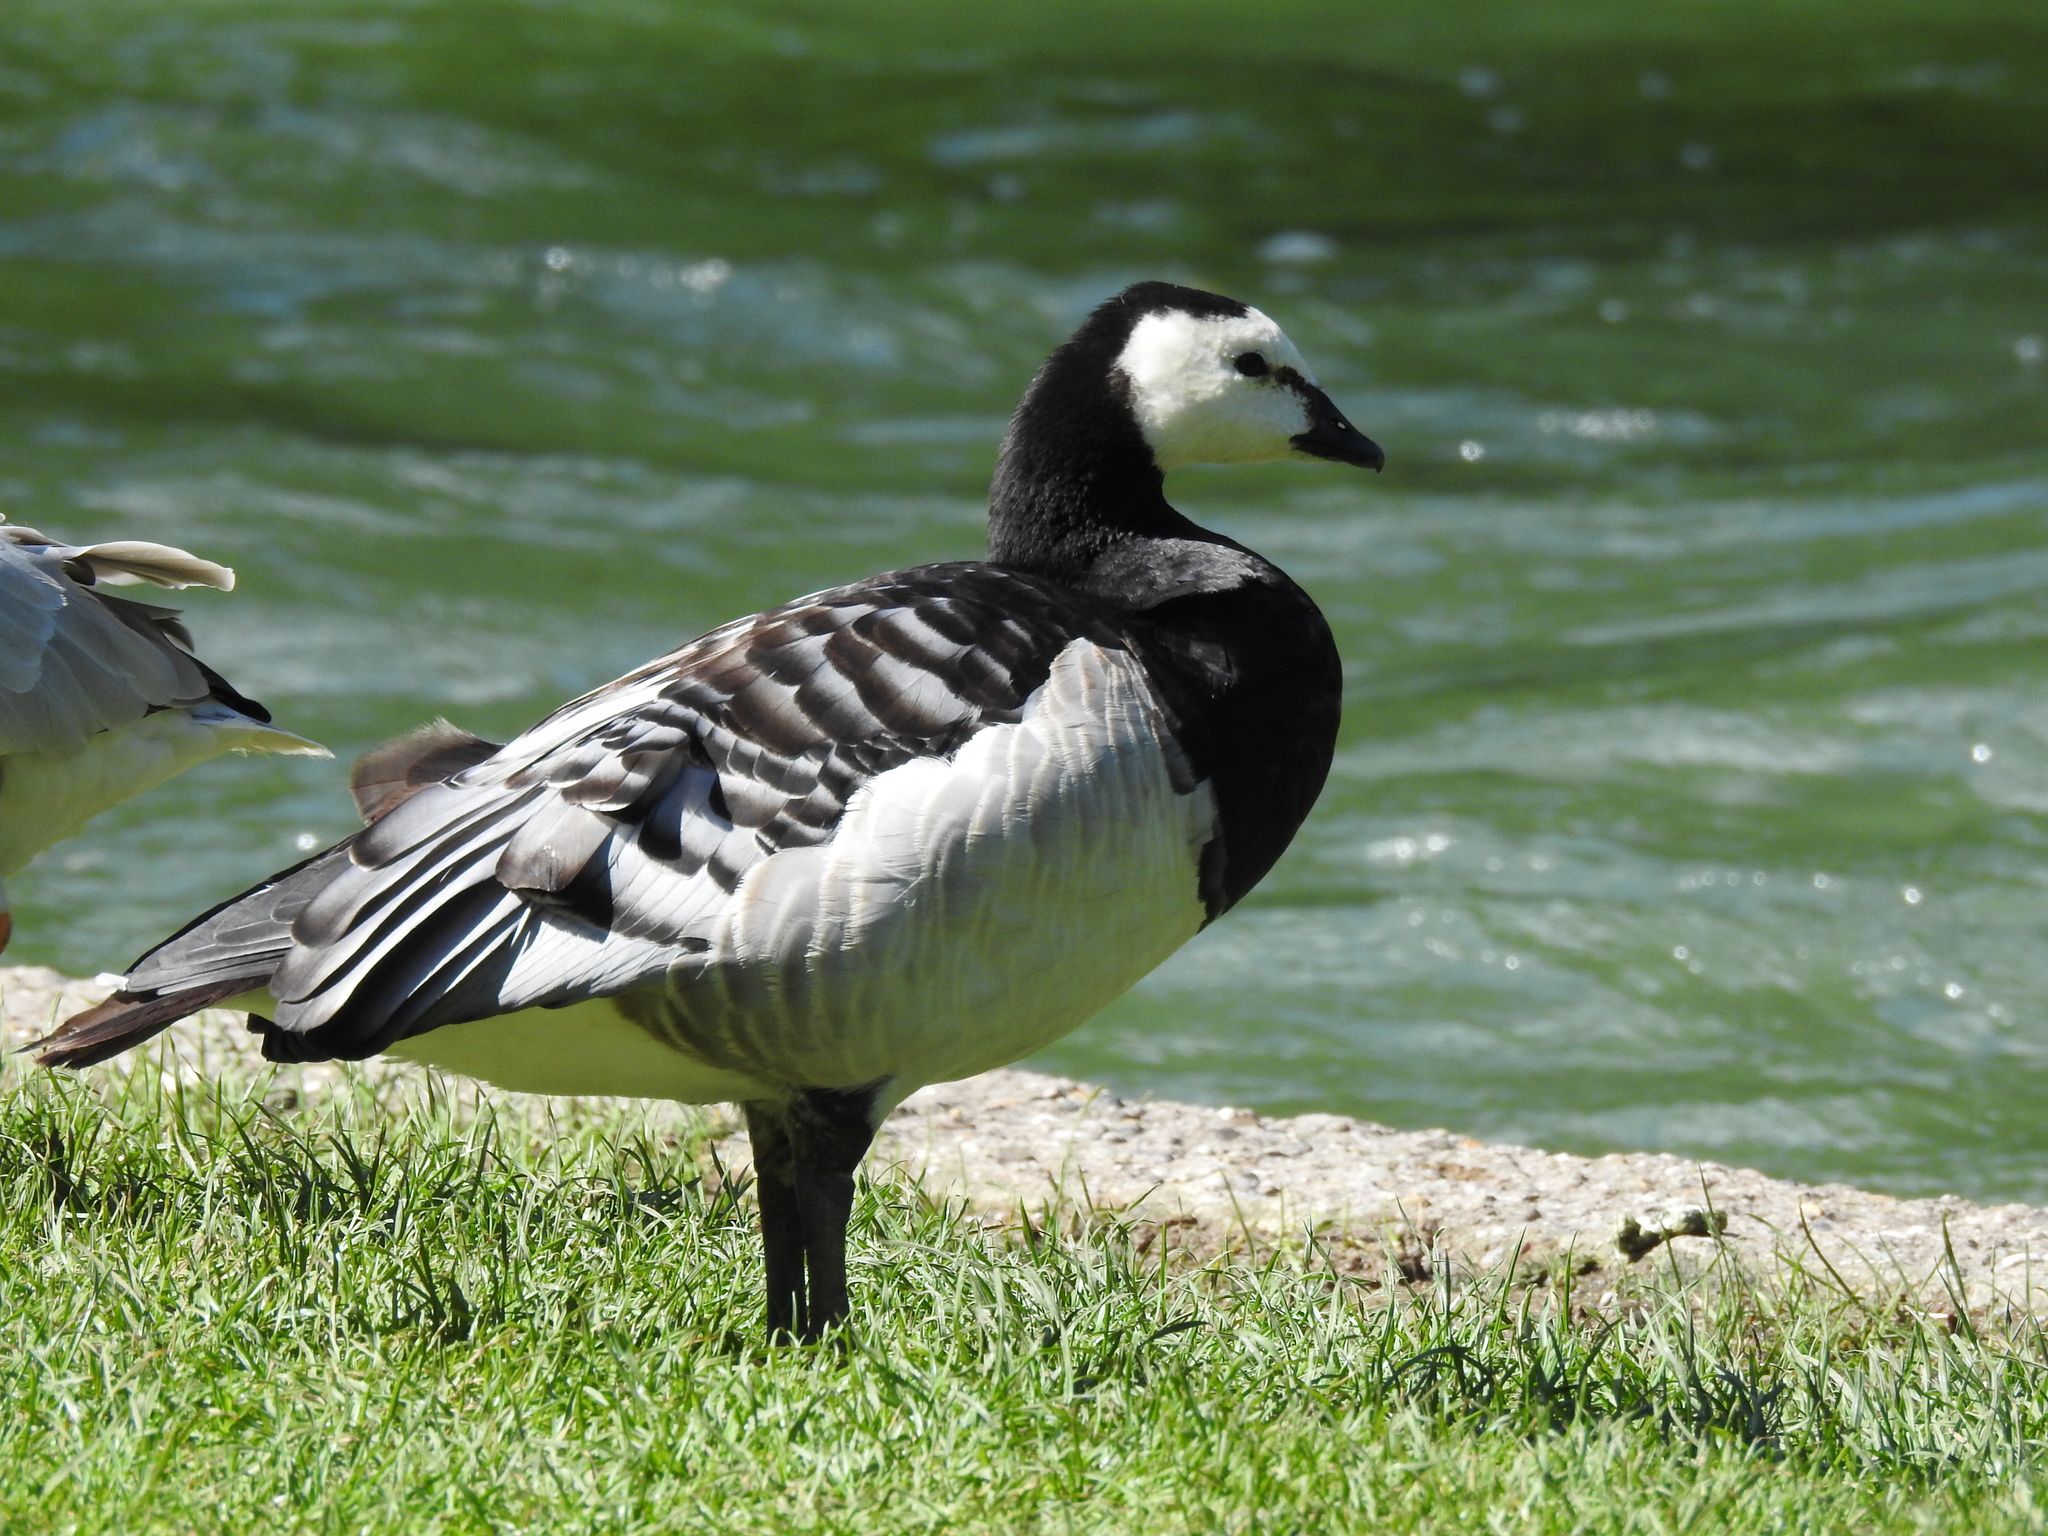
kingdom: Animalia
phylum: Chordata
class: Aves
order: Anseriformes
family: Anatidae
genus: Branta
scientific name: Branta leucopsis
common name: Barnacle goose
